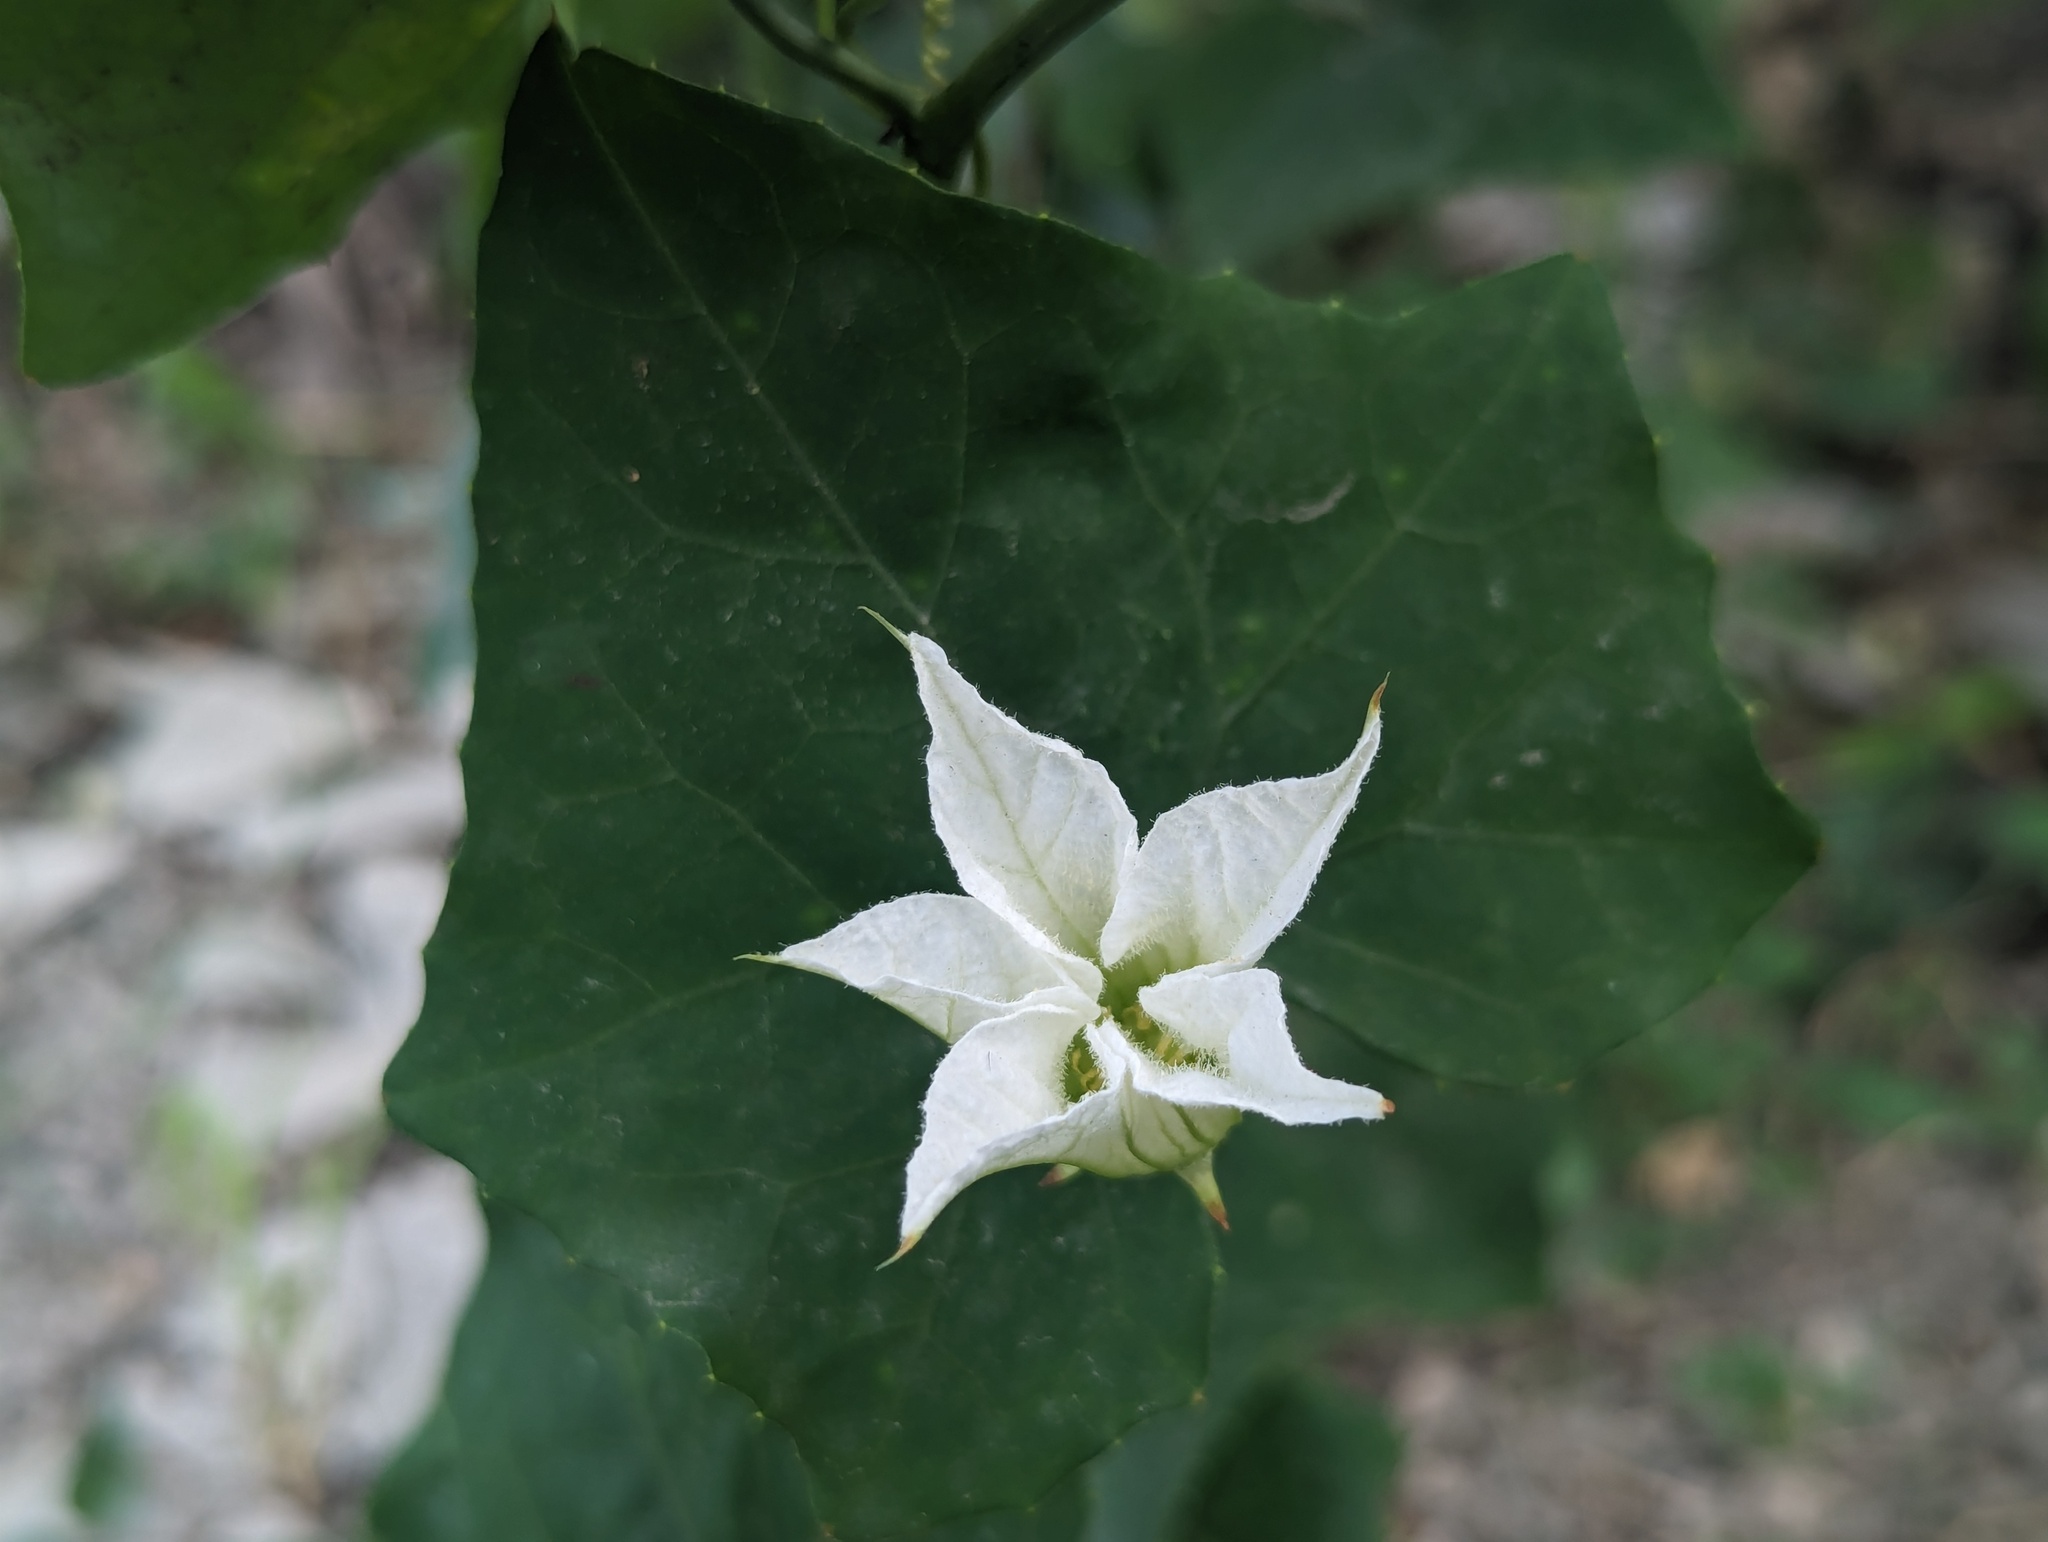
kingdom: Plantae
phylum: Tracheophyta
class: Magnoliopsida
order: Cucurbitales
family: Cucurbitaceae
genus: Coccinia
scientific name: Coccinia grandis
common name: Ivy gourd
